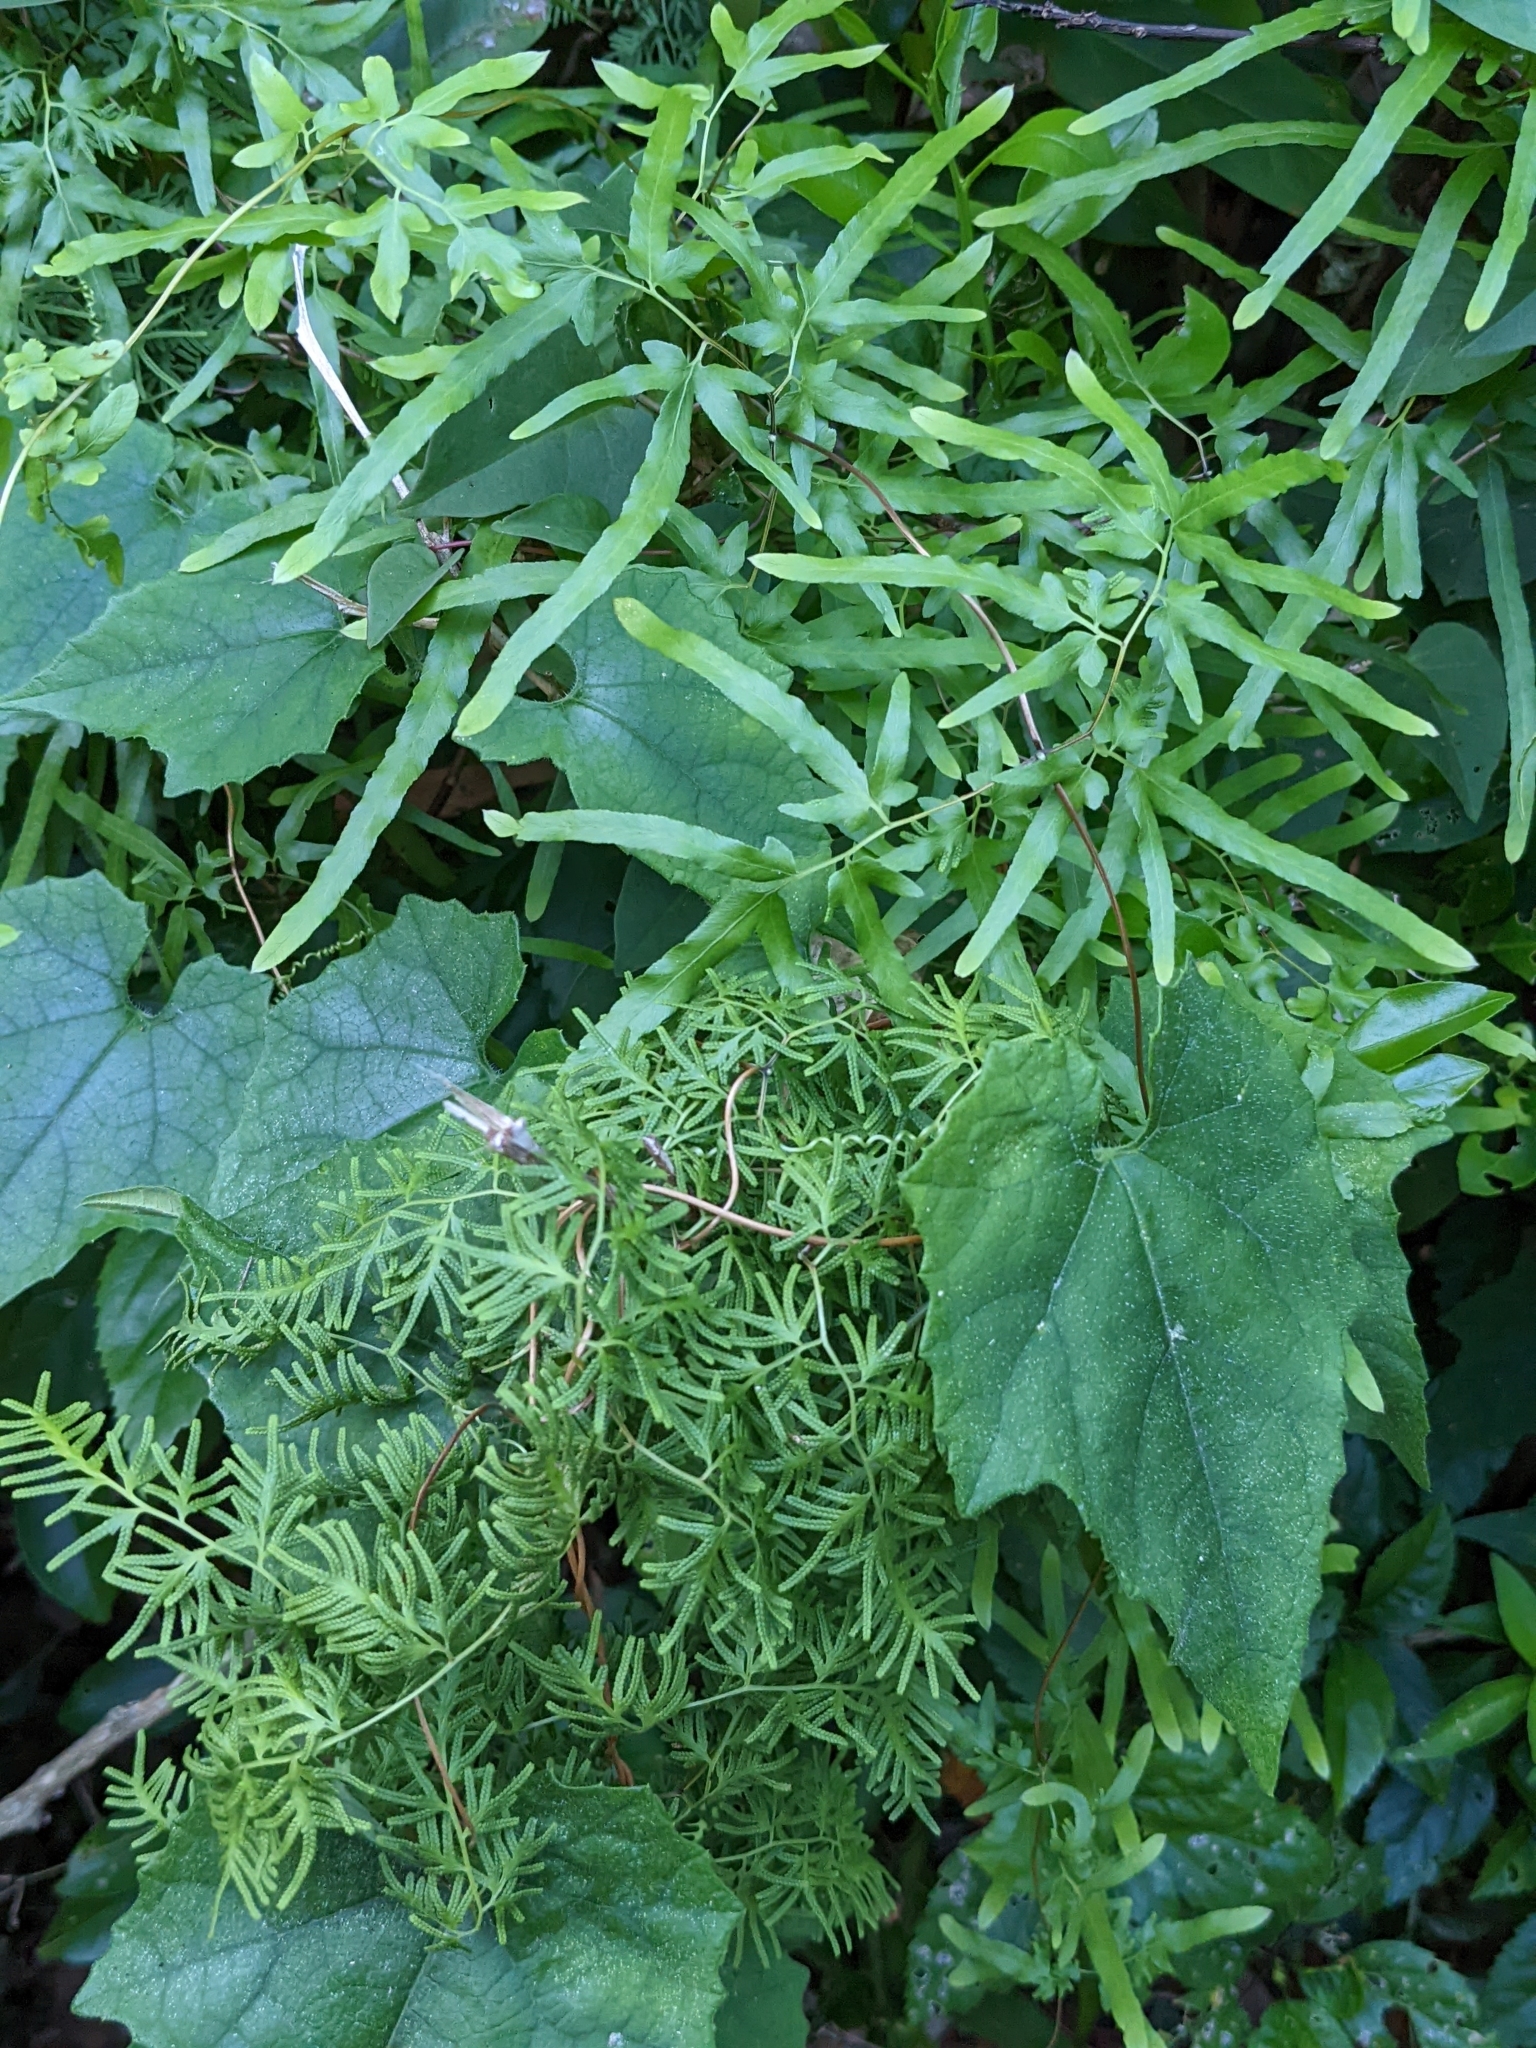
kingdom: Plantae
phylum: Tracheophyta
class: Polypodiopsida
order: Schizaeales
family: Lygodiaceae
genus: Lygodium
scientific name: Lygodium japonicum
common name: Japanese climbing fern
